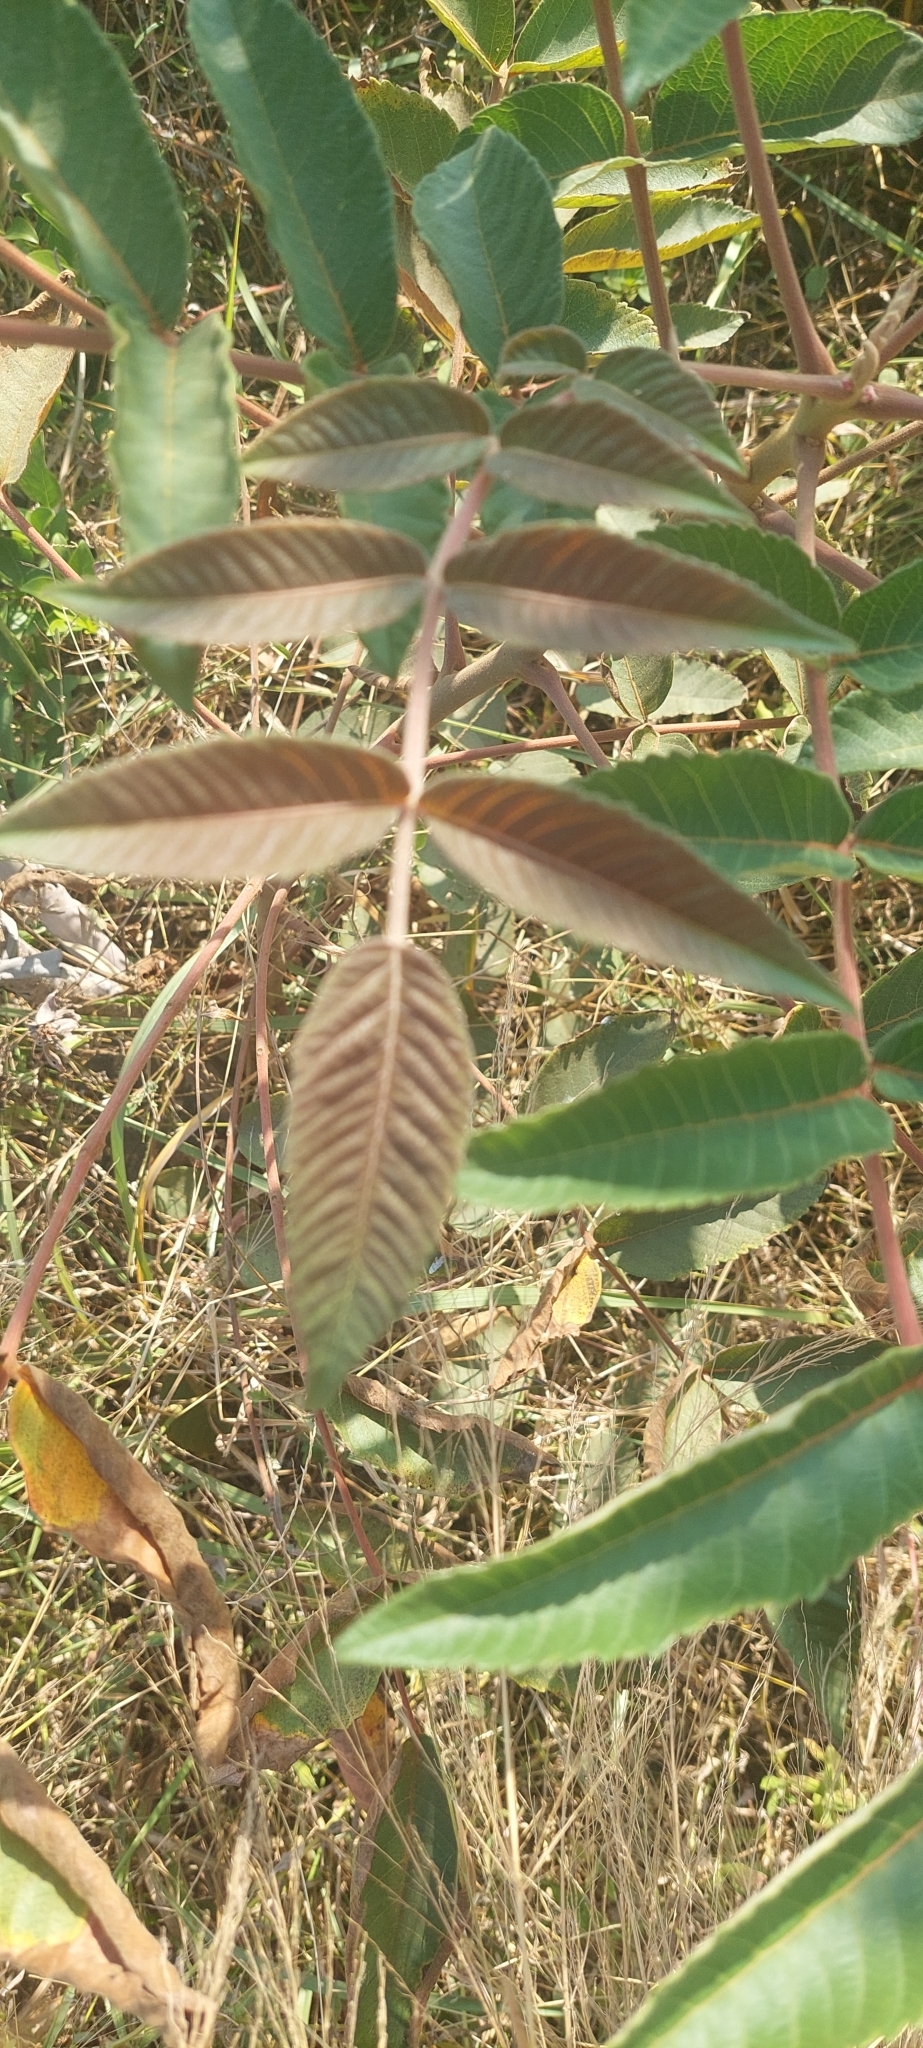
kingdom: Plantae
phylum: Tracheophyta
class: Magnoliopsida
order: Sapindales
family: Anacardiaceae
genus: Rhus
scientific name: Rhus chinensis
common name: Chinese gall
